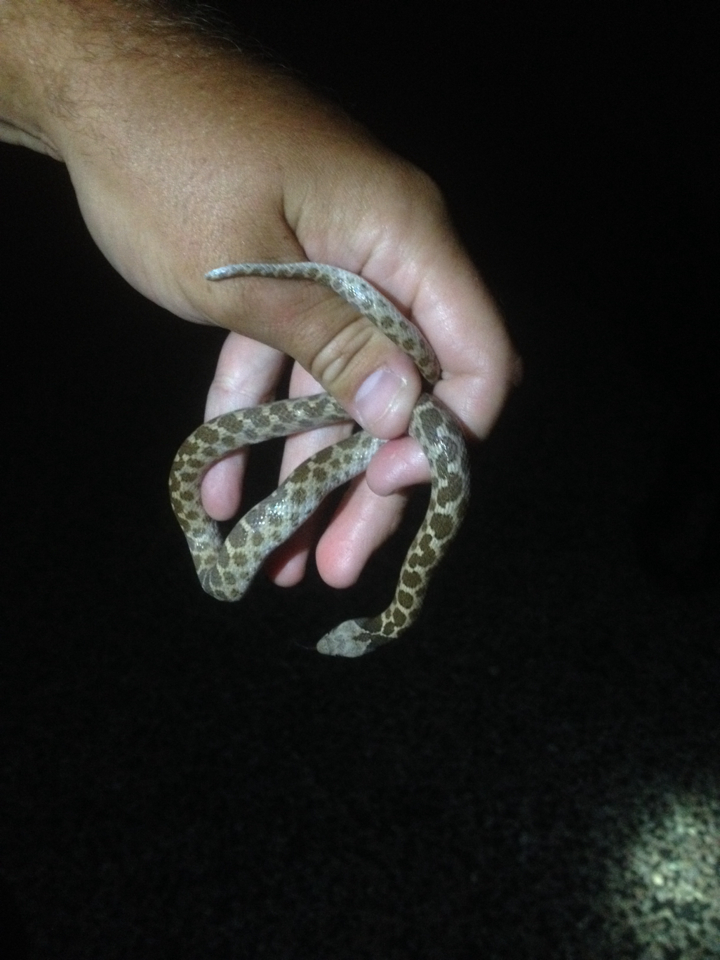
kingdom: Animalia
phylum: Chordata
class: Squamata
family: Colubridae
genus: Hypsiglena
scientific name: Hypsiglena jani
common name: Chihuahuan nightsnake
